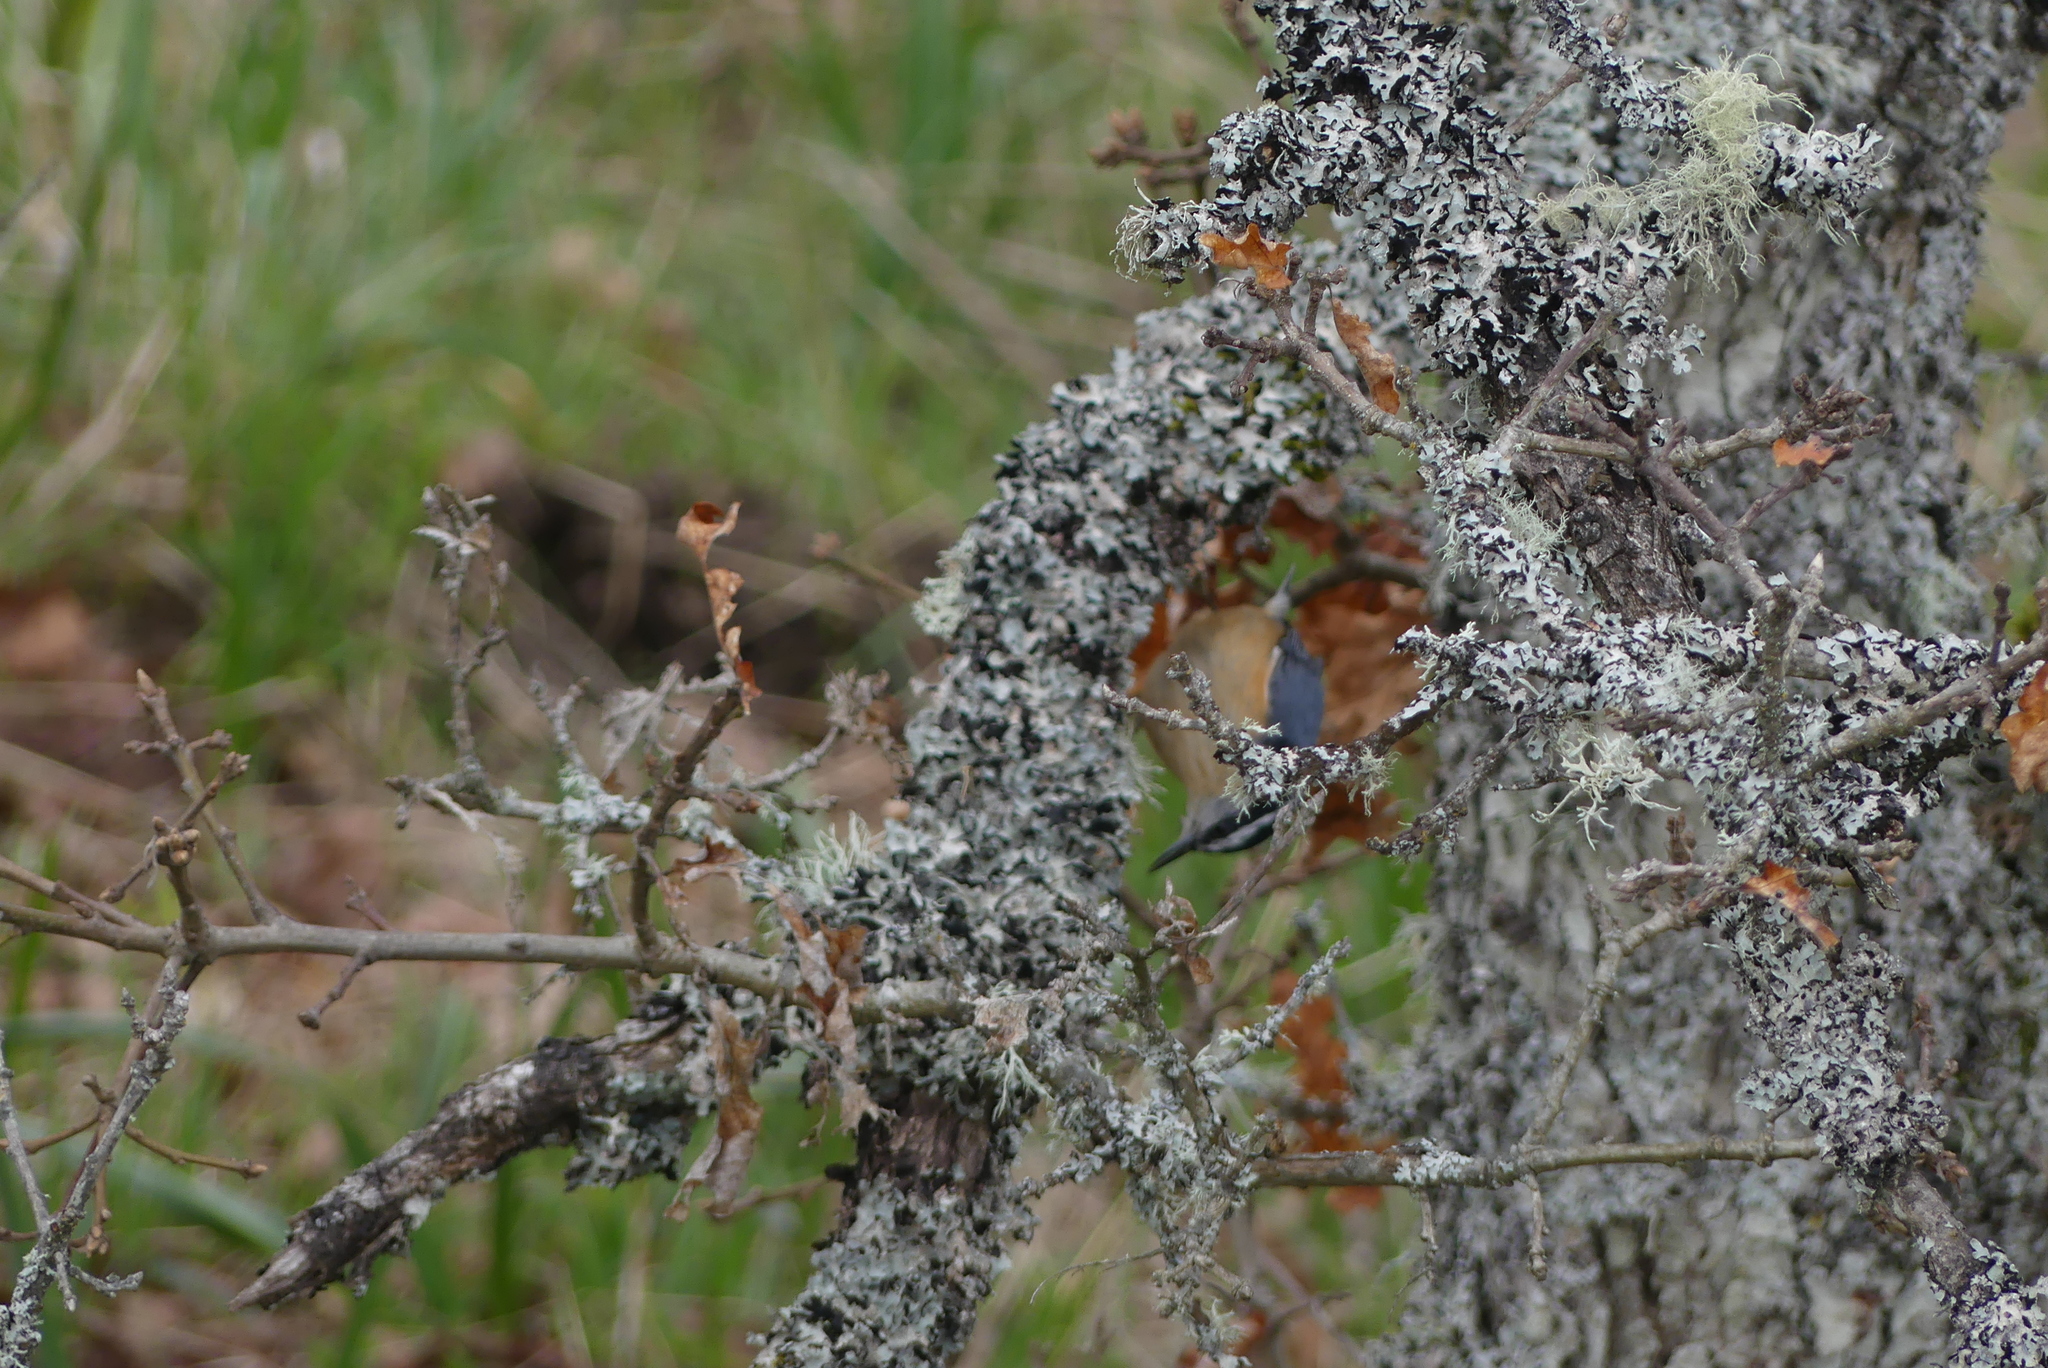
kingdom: Animalia
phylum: Chordata
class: Aves
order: Passeriformes
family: Sittidae
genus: Sitta
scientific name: Sitta canadensis
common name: Red-breasted nuthatch
